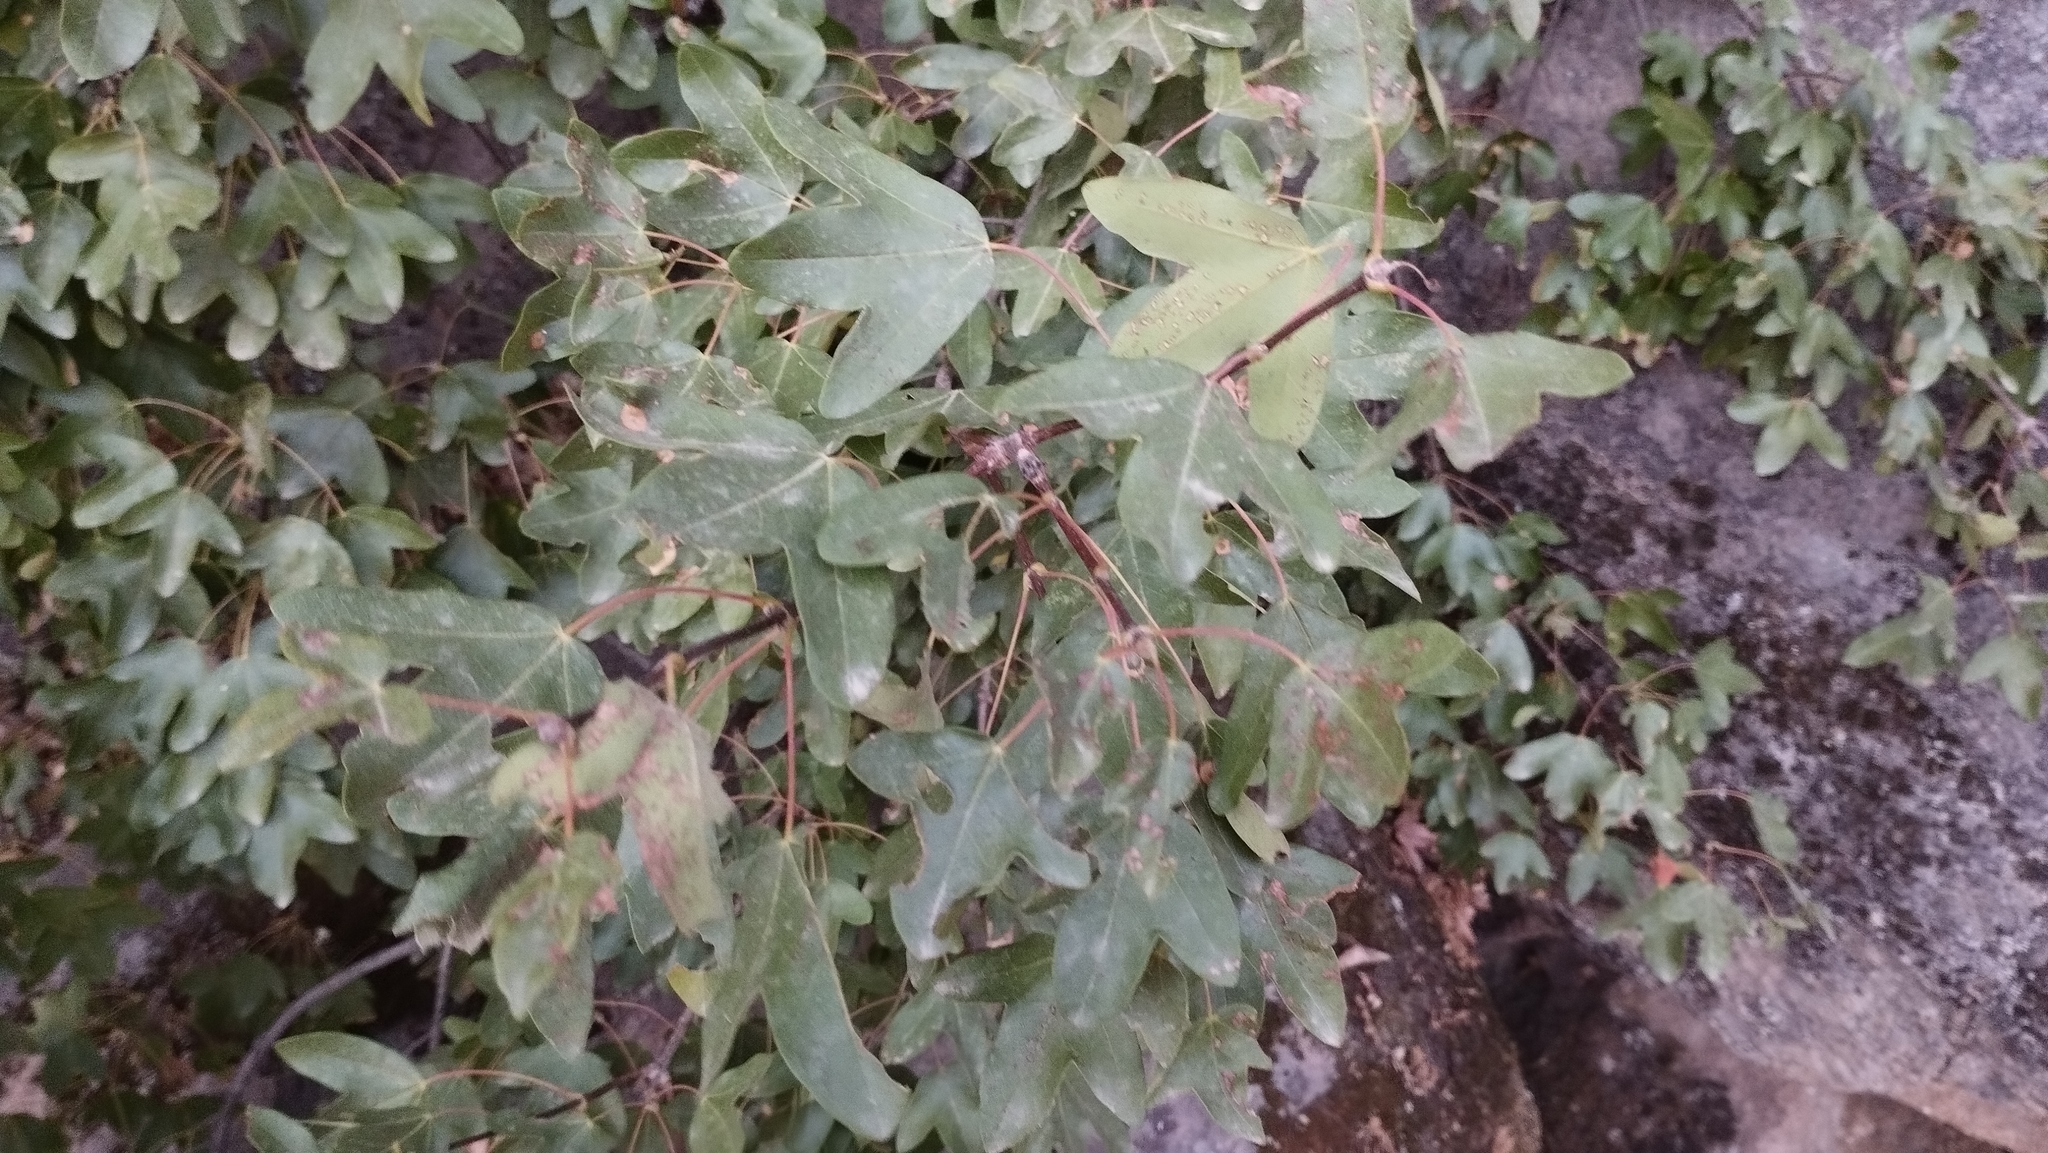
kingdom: Plantae
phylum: Tracheophyta
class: Magnoliopsida
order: Sapindales
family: Sapindaceae
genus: Acer
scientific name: Acer monspessulanum
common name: Montpellier maple
